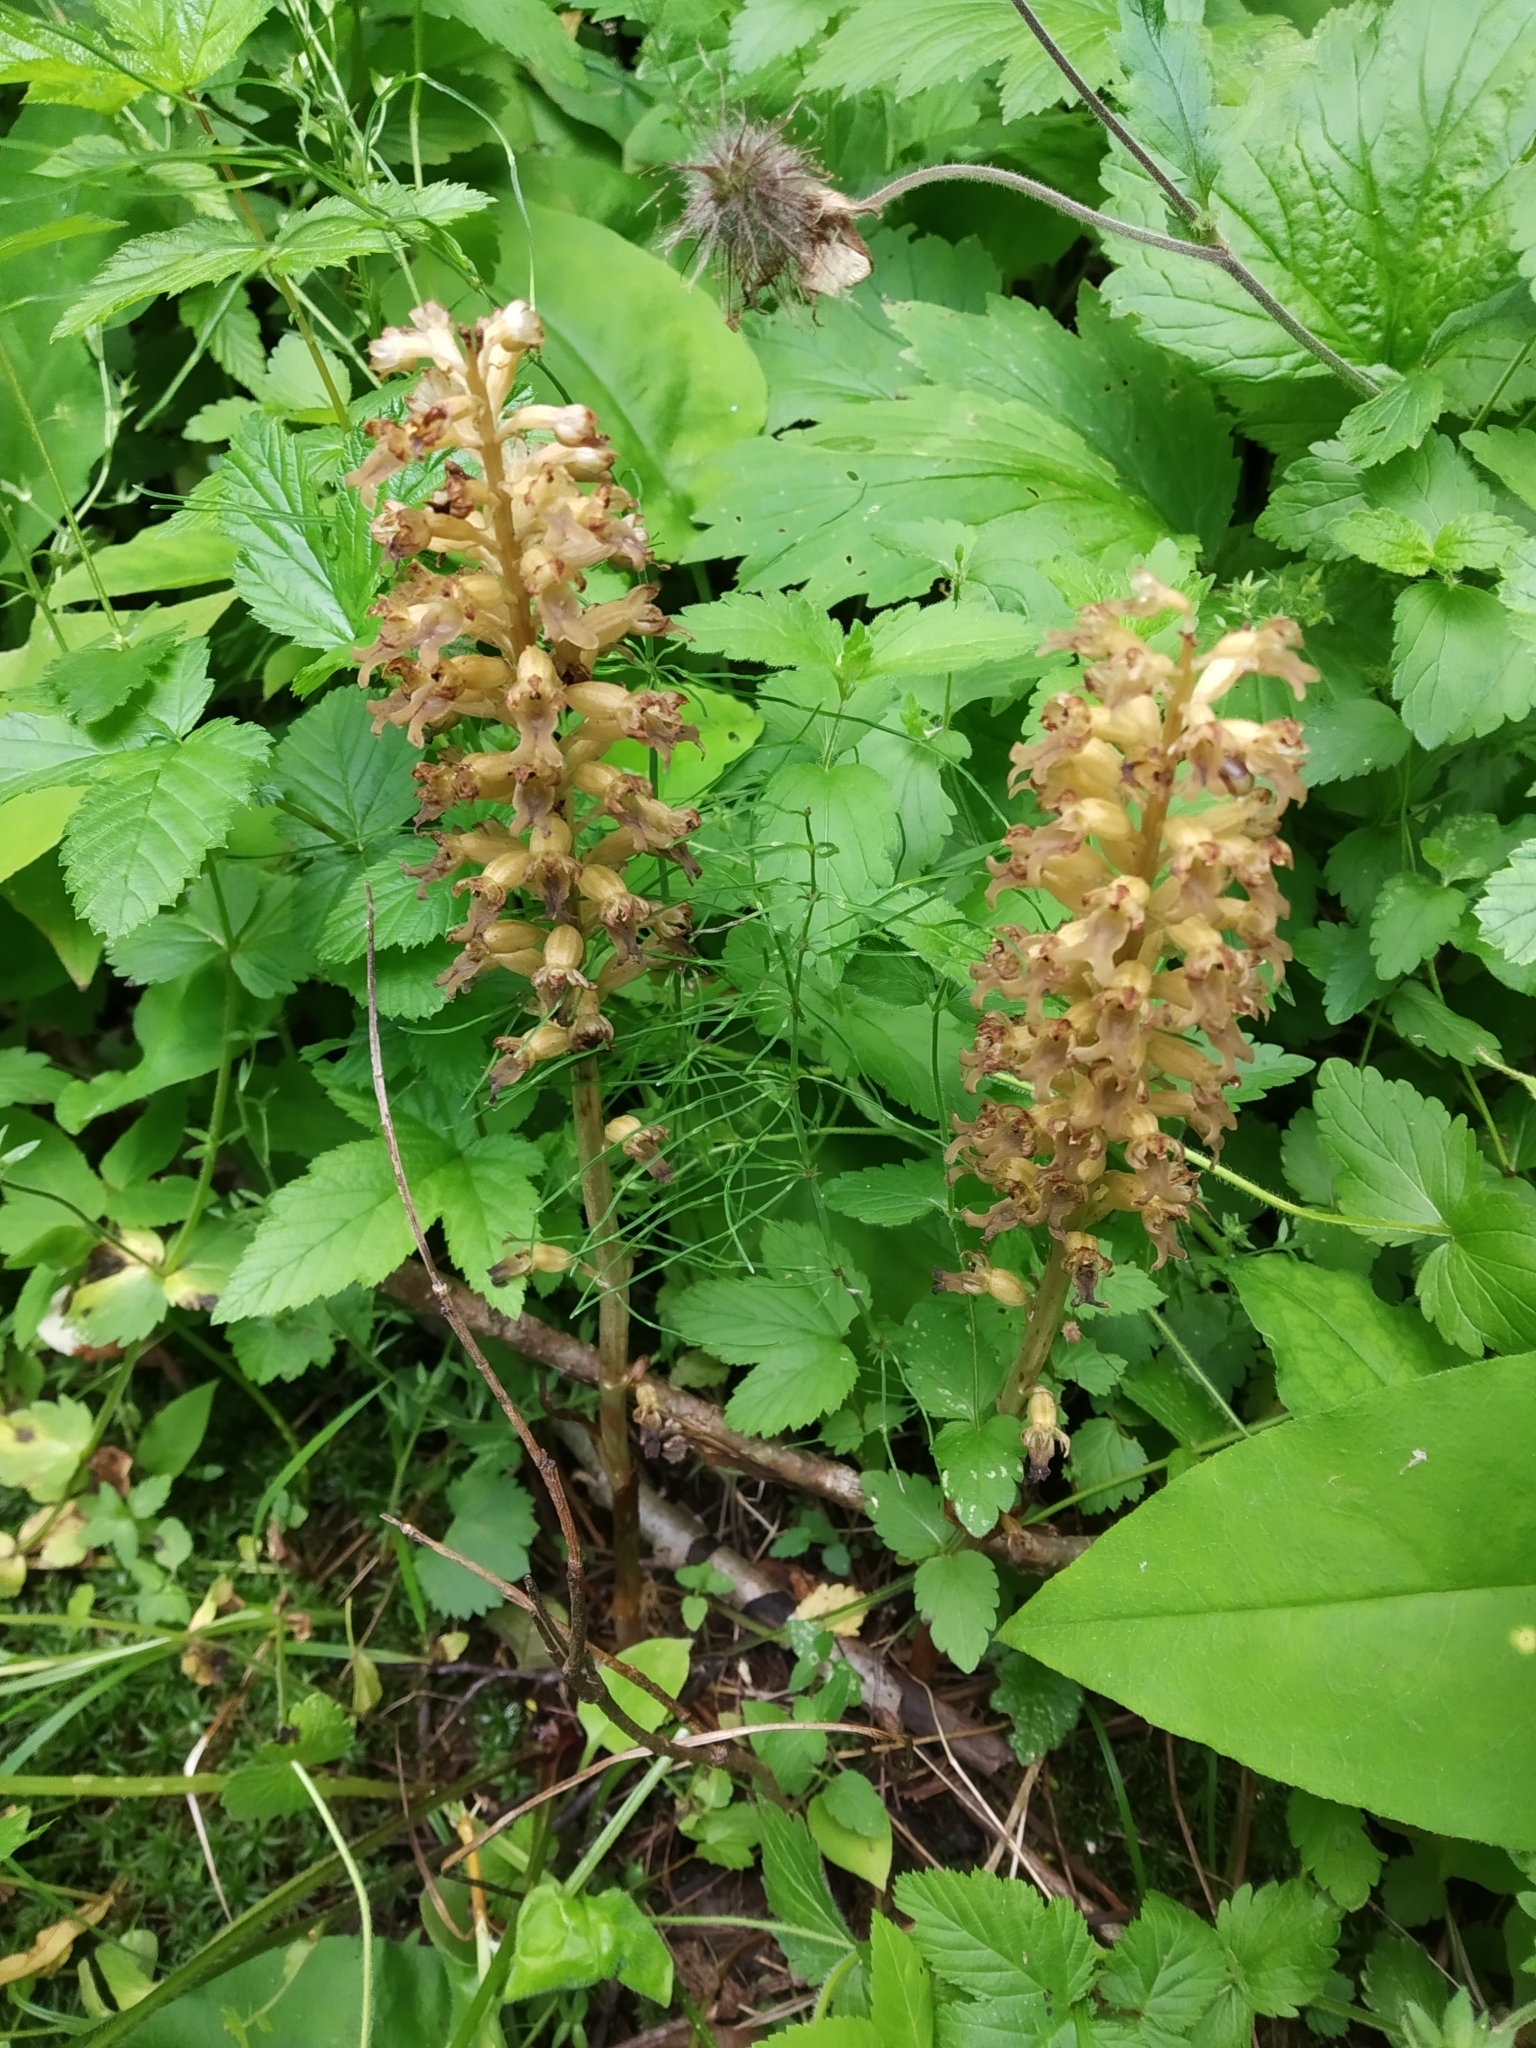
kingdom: Plantae
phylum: Tracheophyta
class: Liliopsida
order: Asparagales
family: Orchidaceae
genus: Neottia
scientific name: Neottia nidus-avis
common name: Bird's-nest orchid
